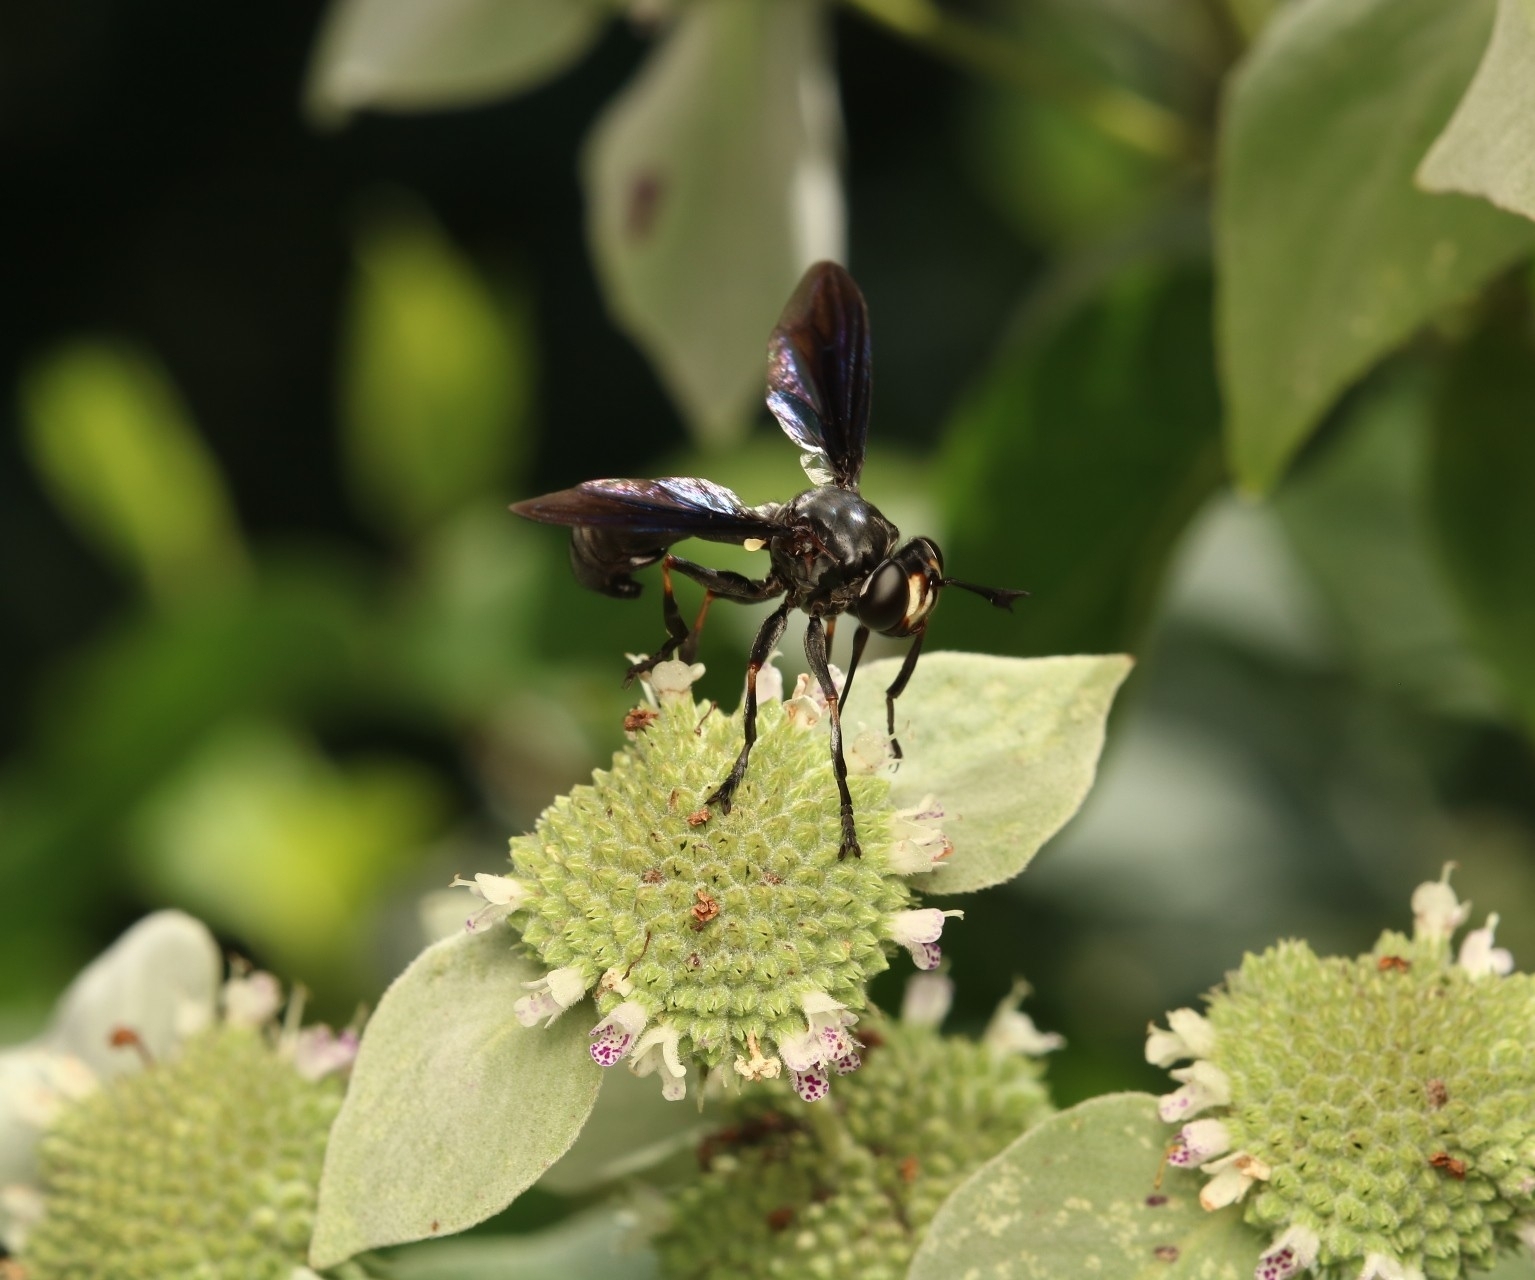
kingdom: Animalia
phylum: Arthropoda
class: Insecta
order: Diptera
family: Conopidae
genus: Physocephala
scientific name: Physocephala tibialis
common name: Common eastern physocephala
